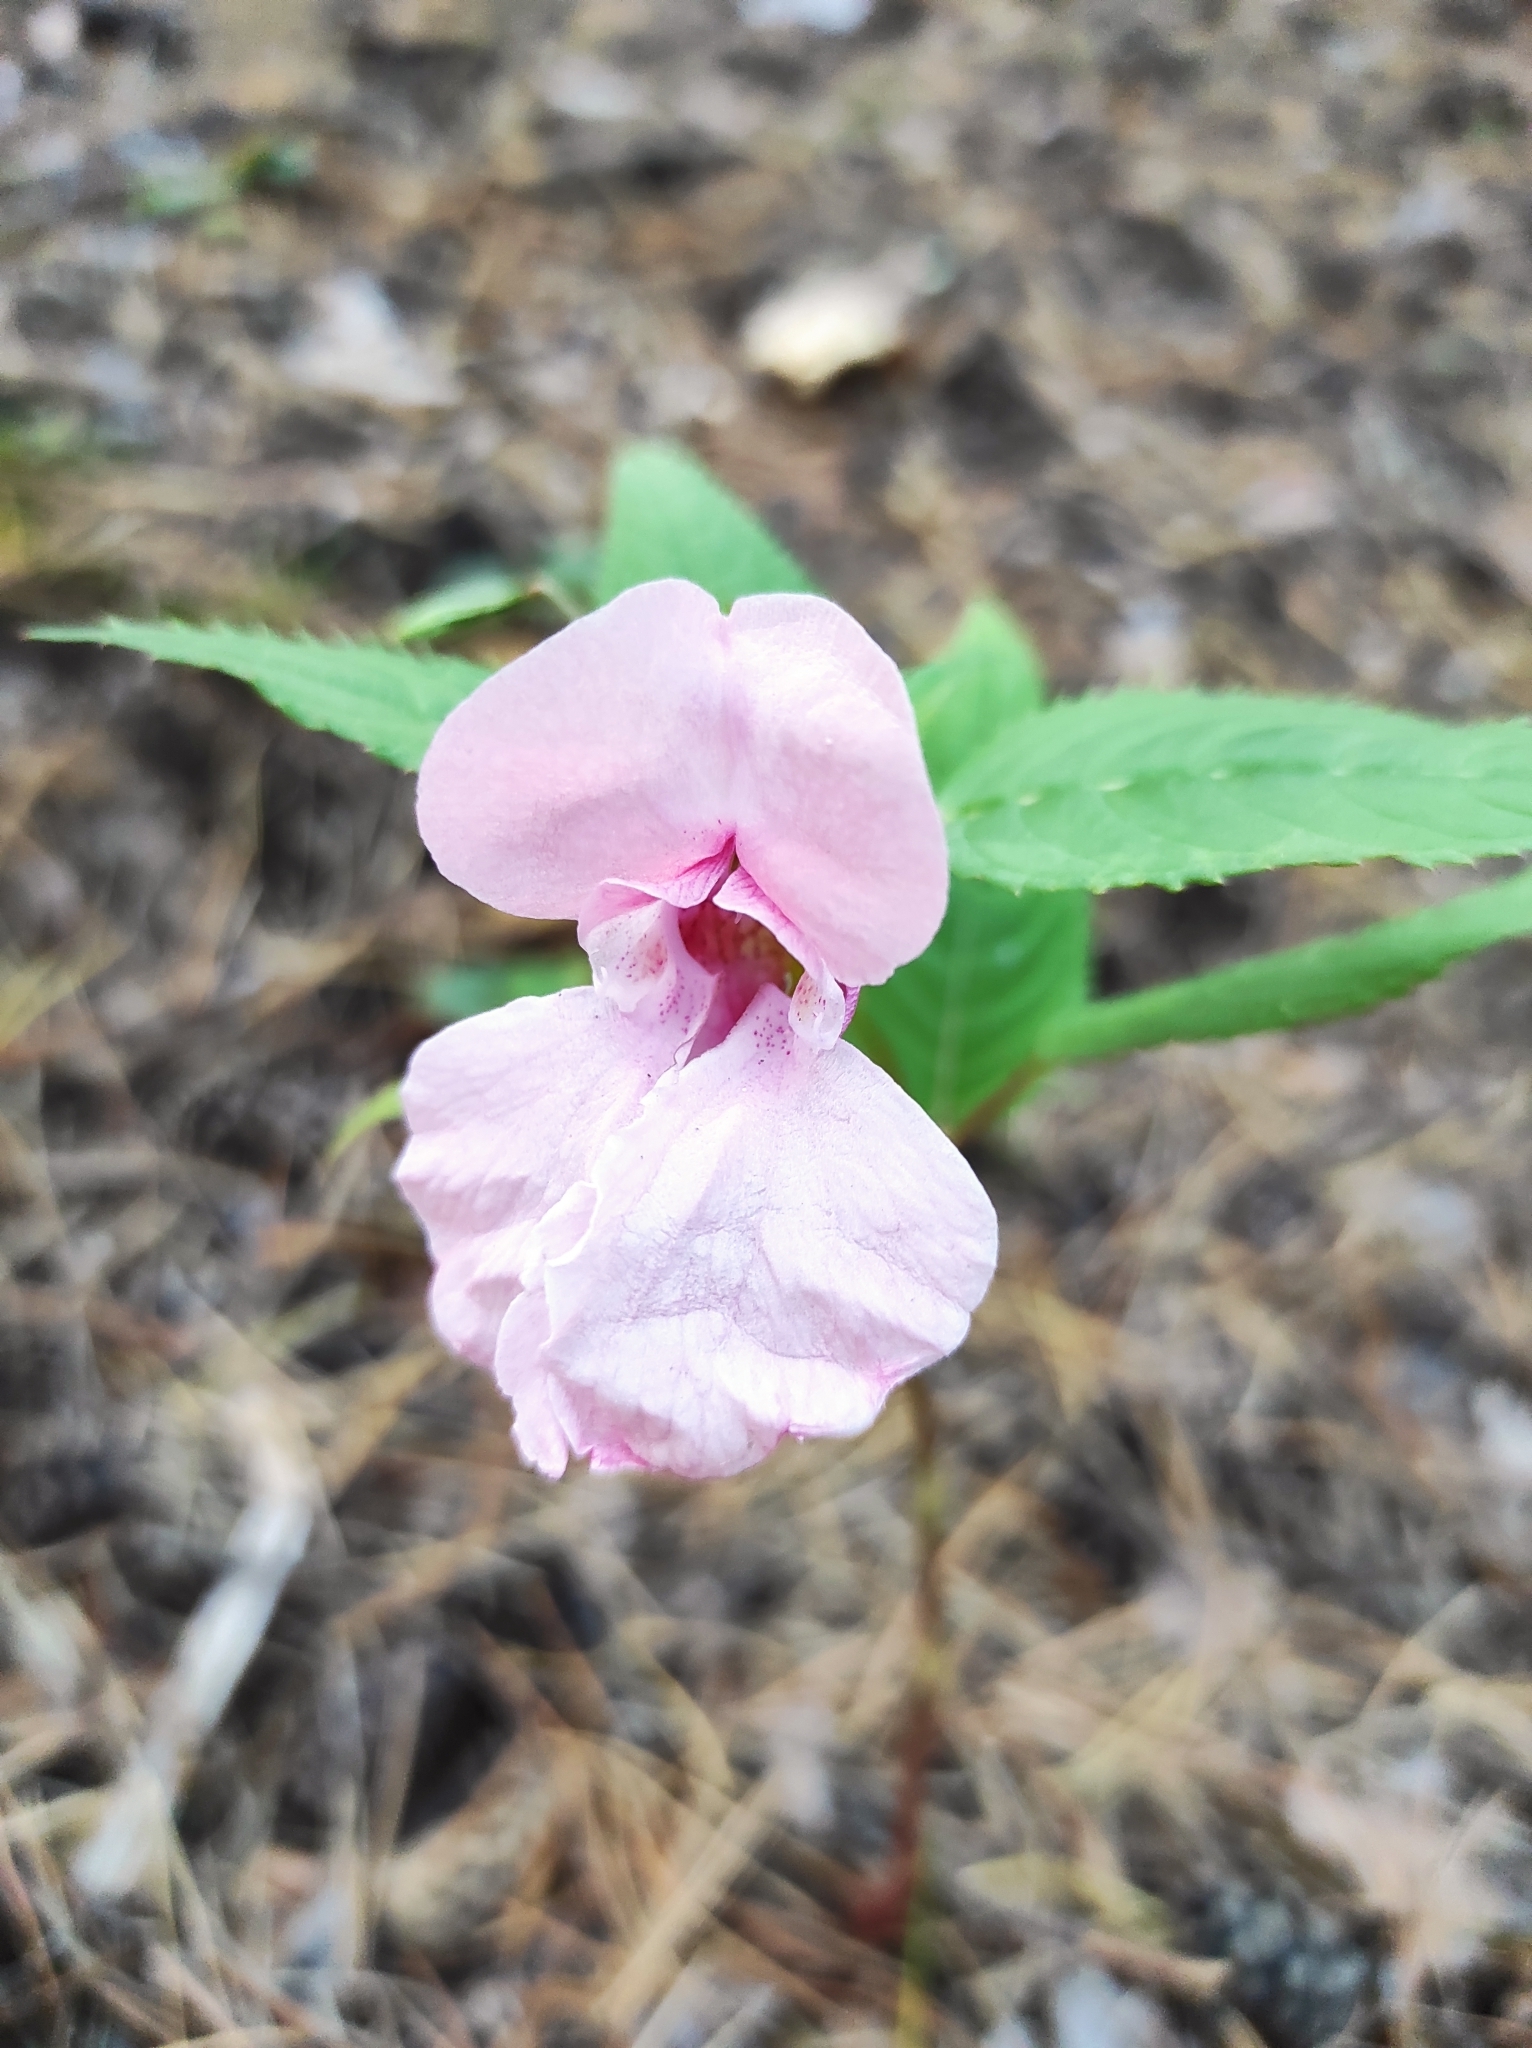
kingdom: Plantae
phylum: Tracheophyta
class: Magnoliopsida
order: Ericales
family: Balsaminaceae
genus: Impatiens
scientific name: Impatiens glandulifera
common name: Himalayan balsam
